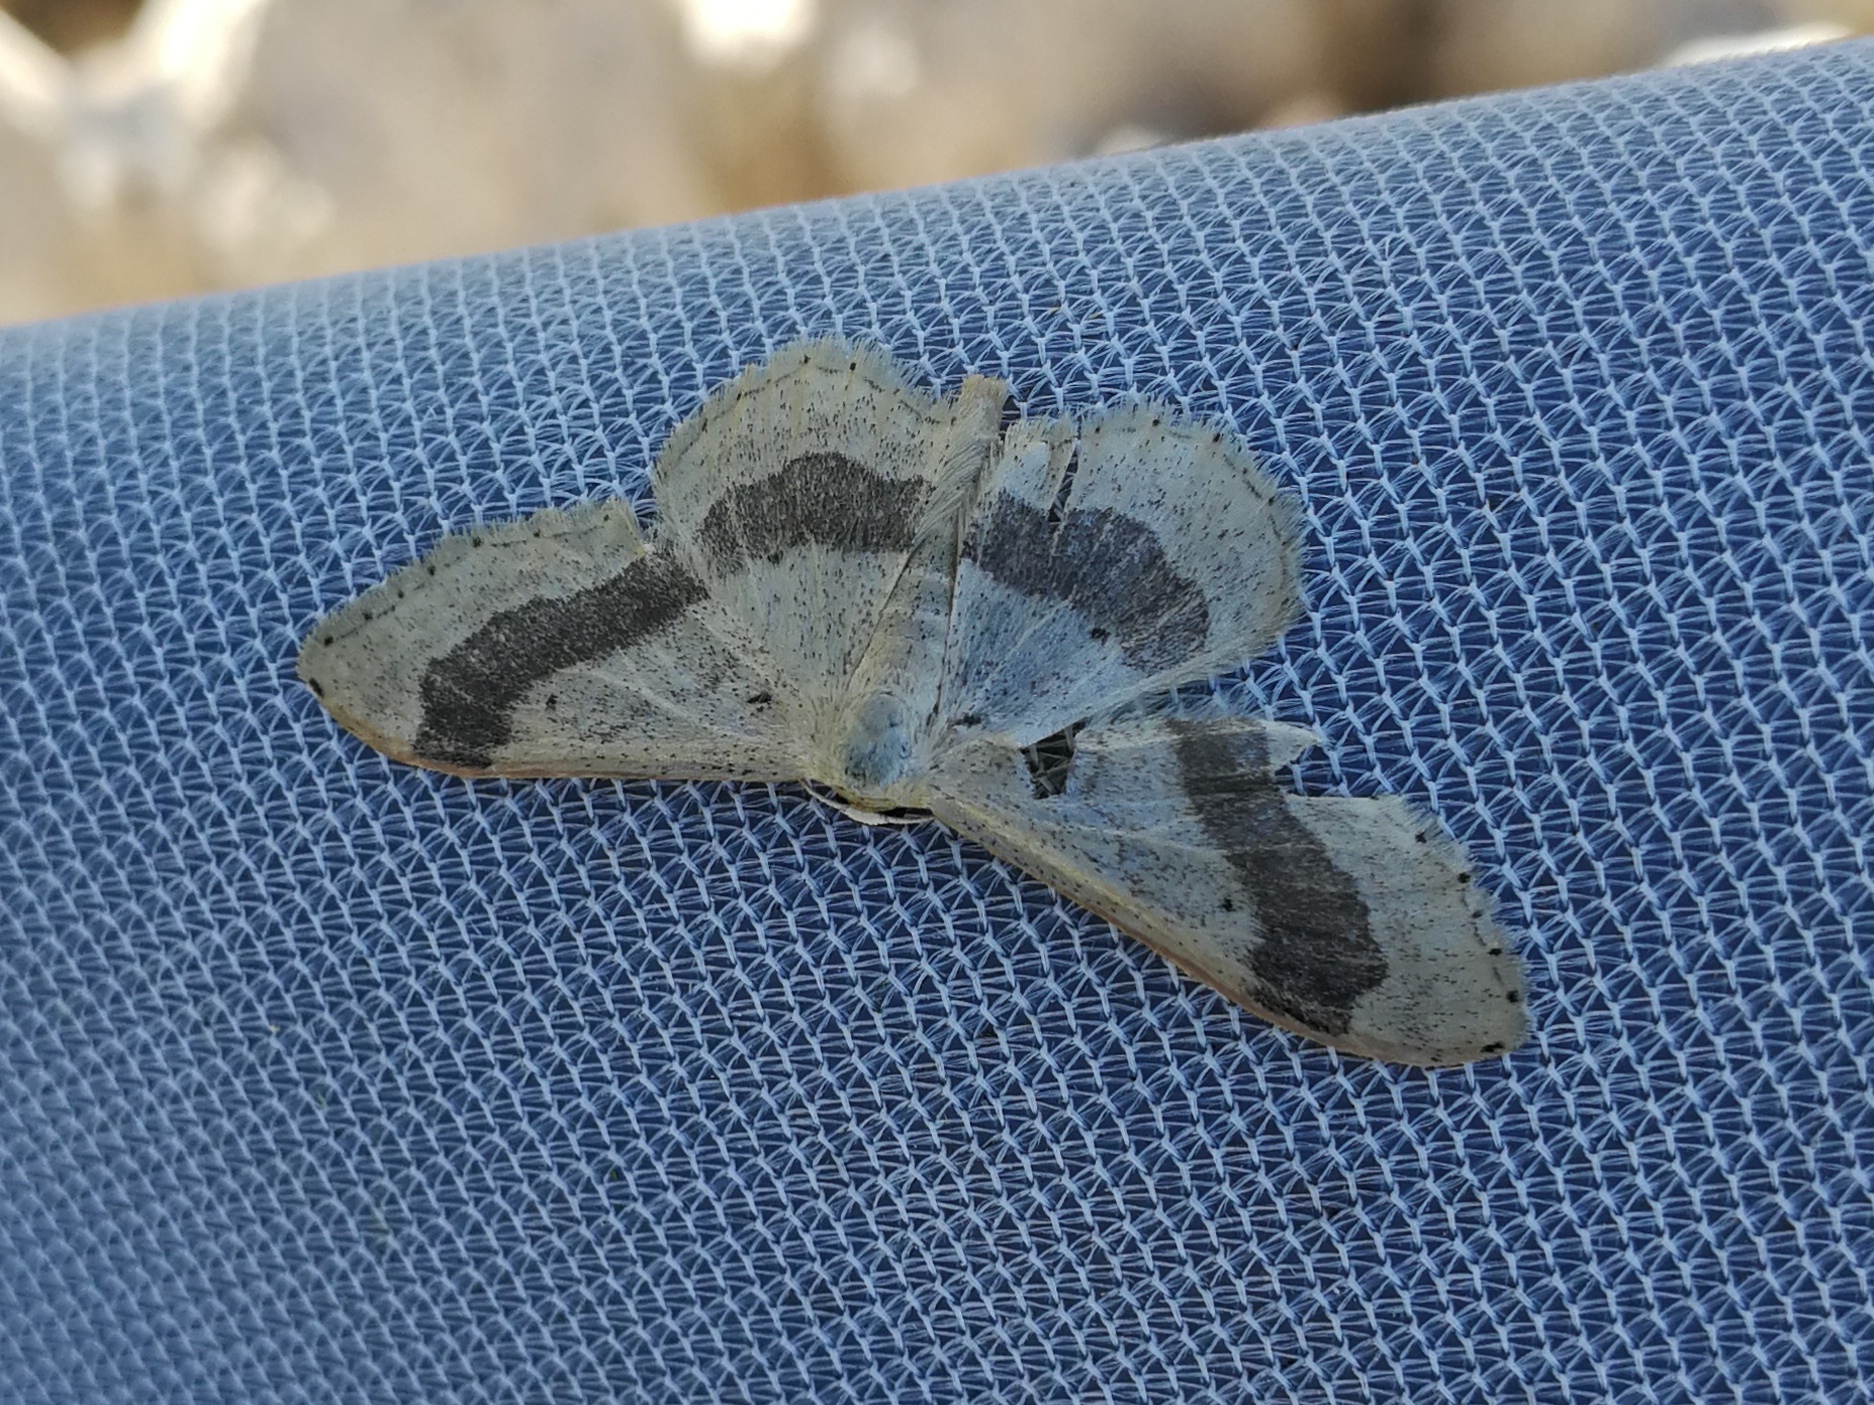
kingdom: Animalia
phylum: Arthropoda
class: Insecta
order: Lepidoptera
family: Geometridae
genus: Idaea
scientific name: Idaea aversata
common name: Riband wave
